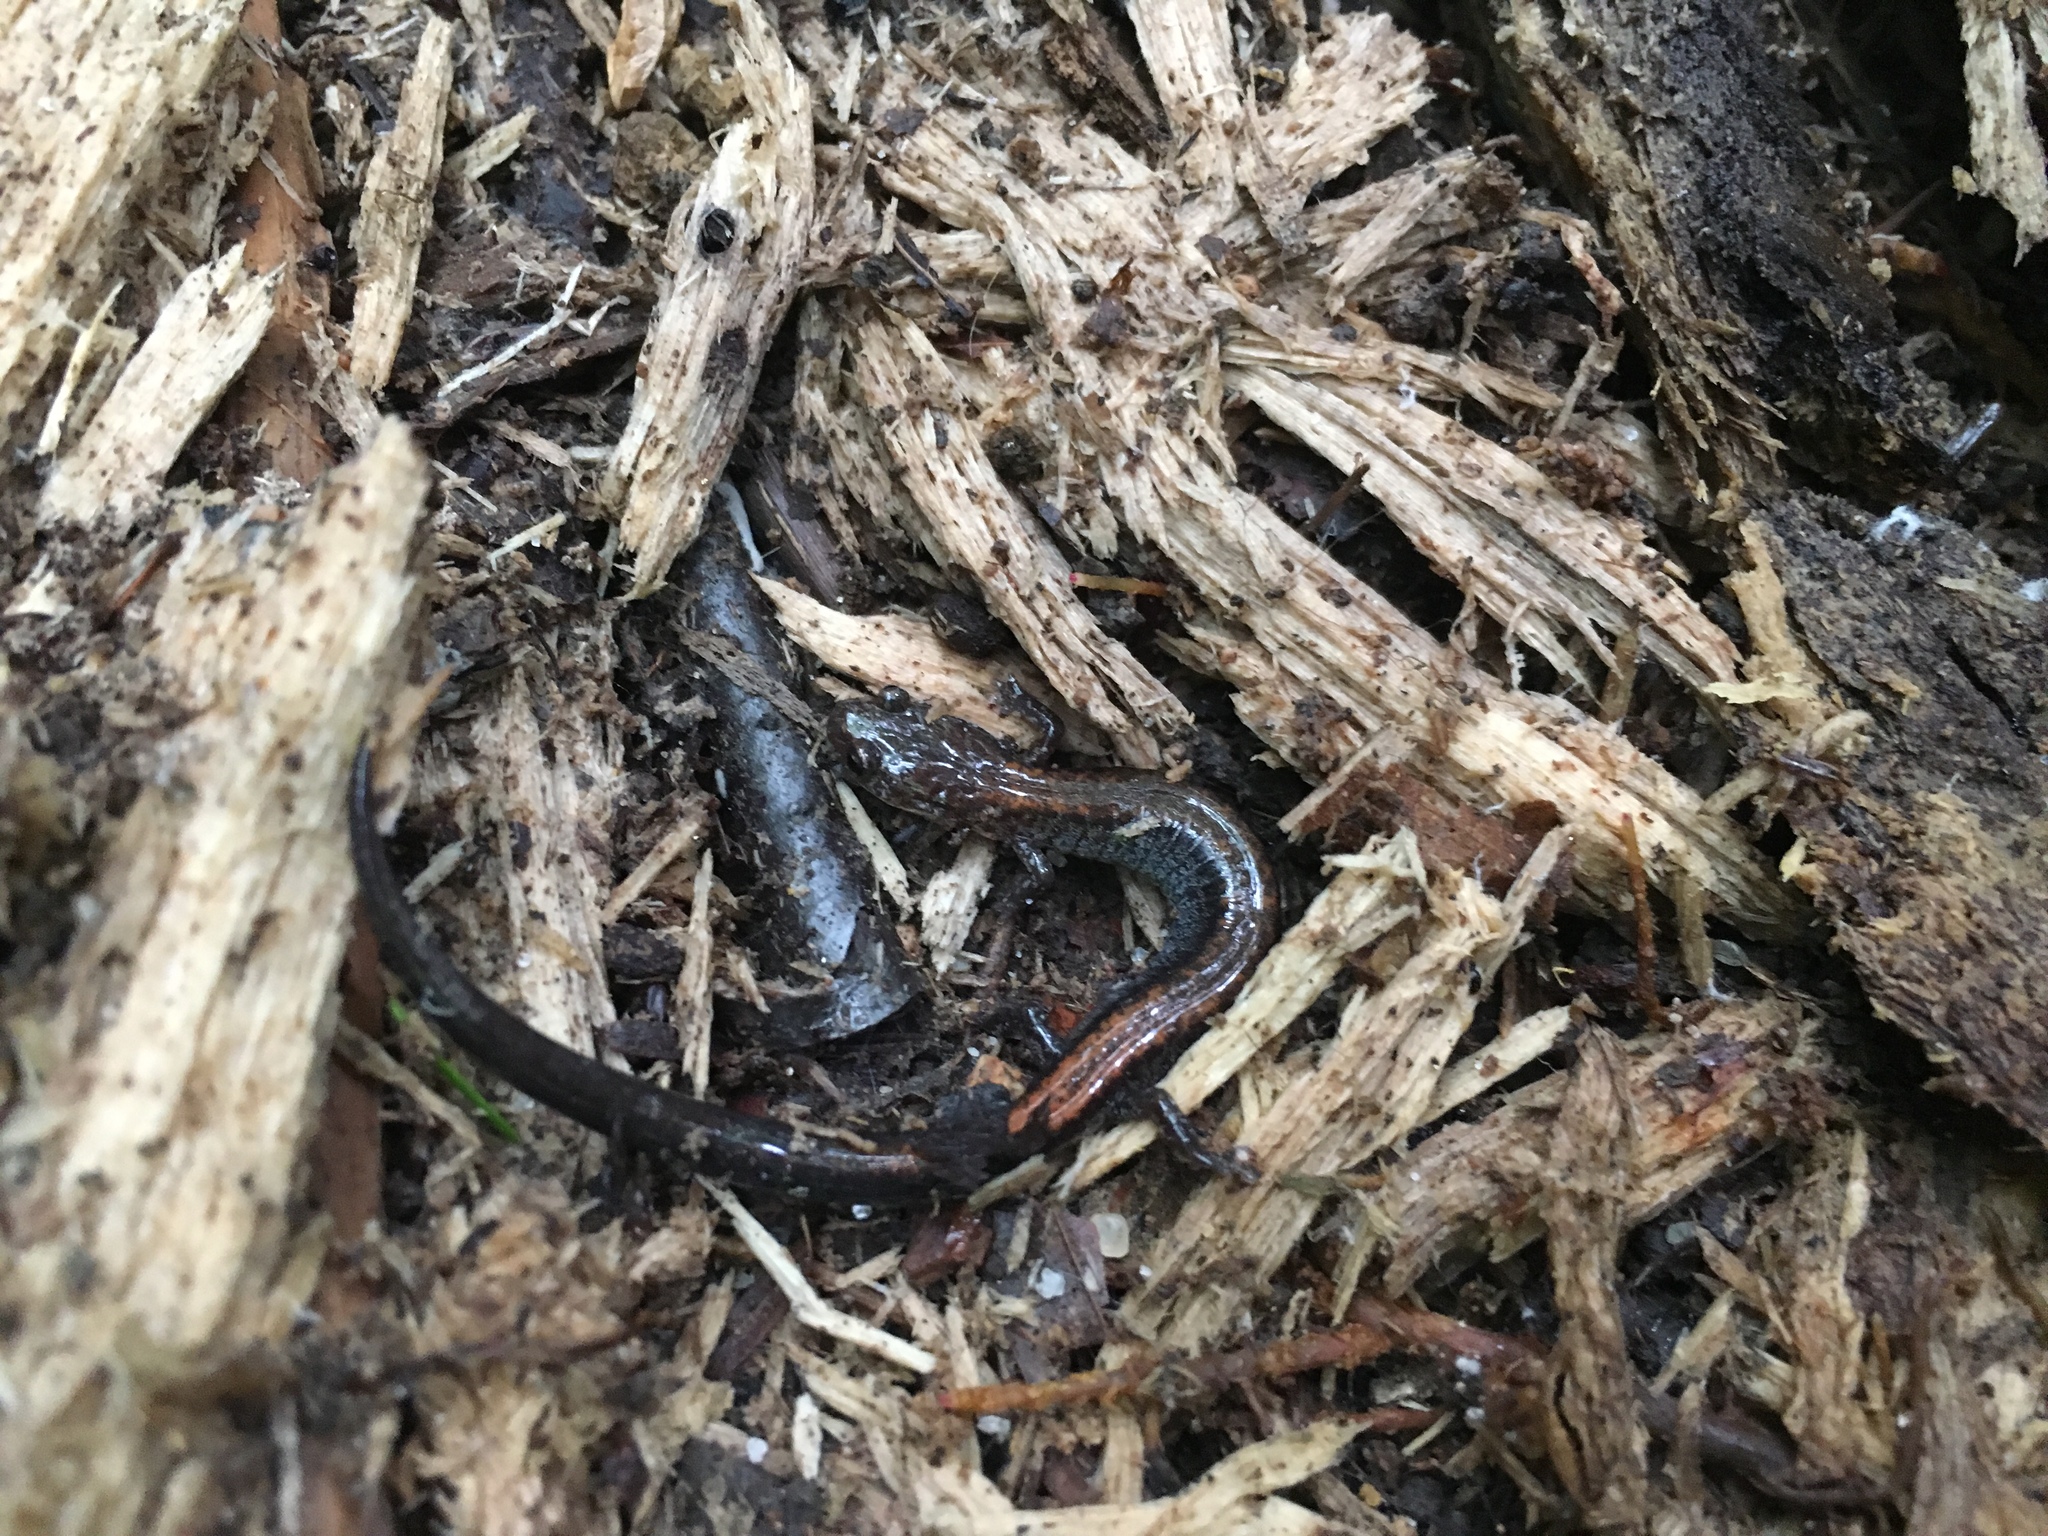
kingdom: Animalia
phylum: Chordata
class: Amphibia
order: Caudata
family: Plethodontidae
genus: Plethodon
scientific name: Plethodon cinereus
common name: Redback salamander
